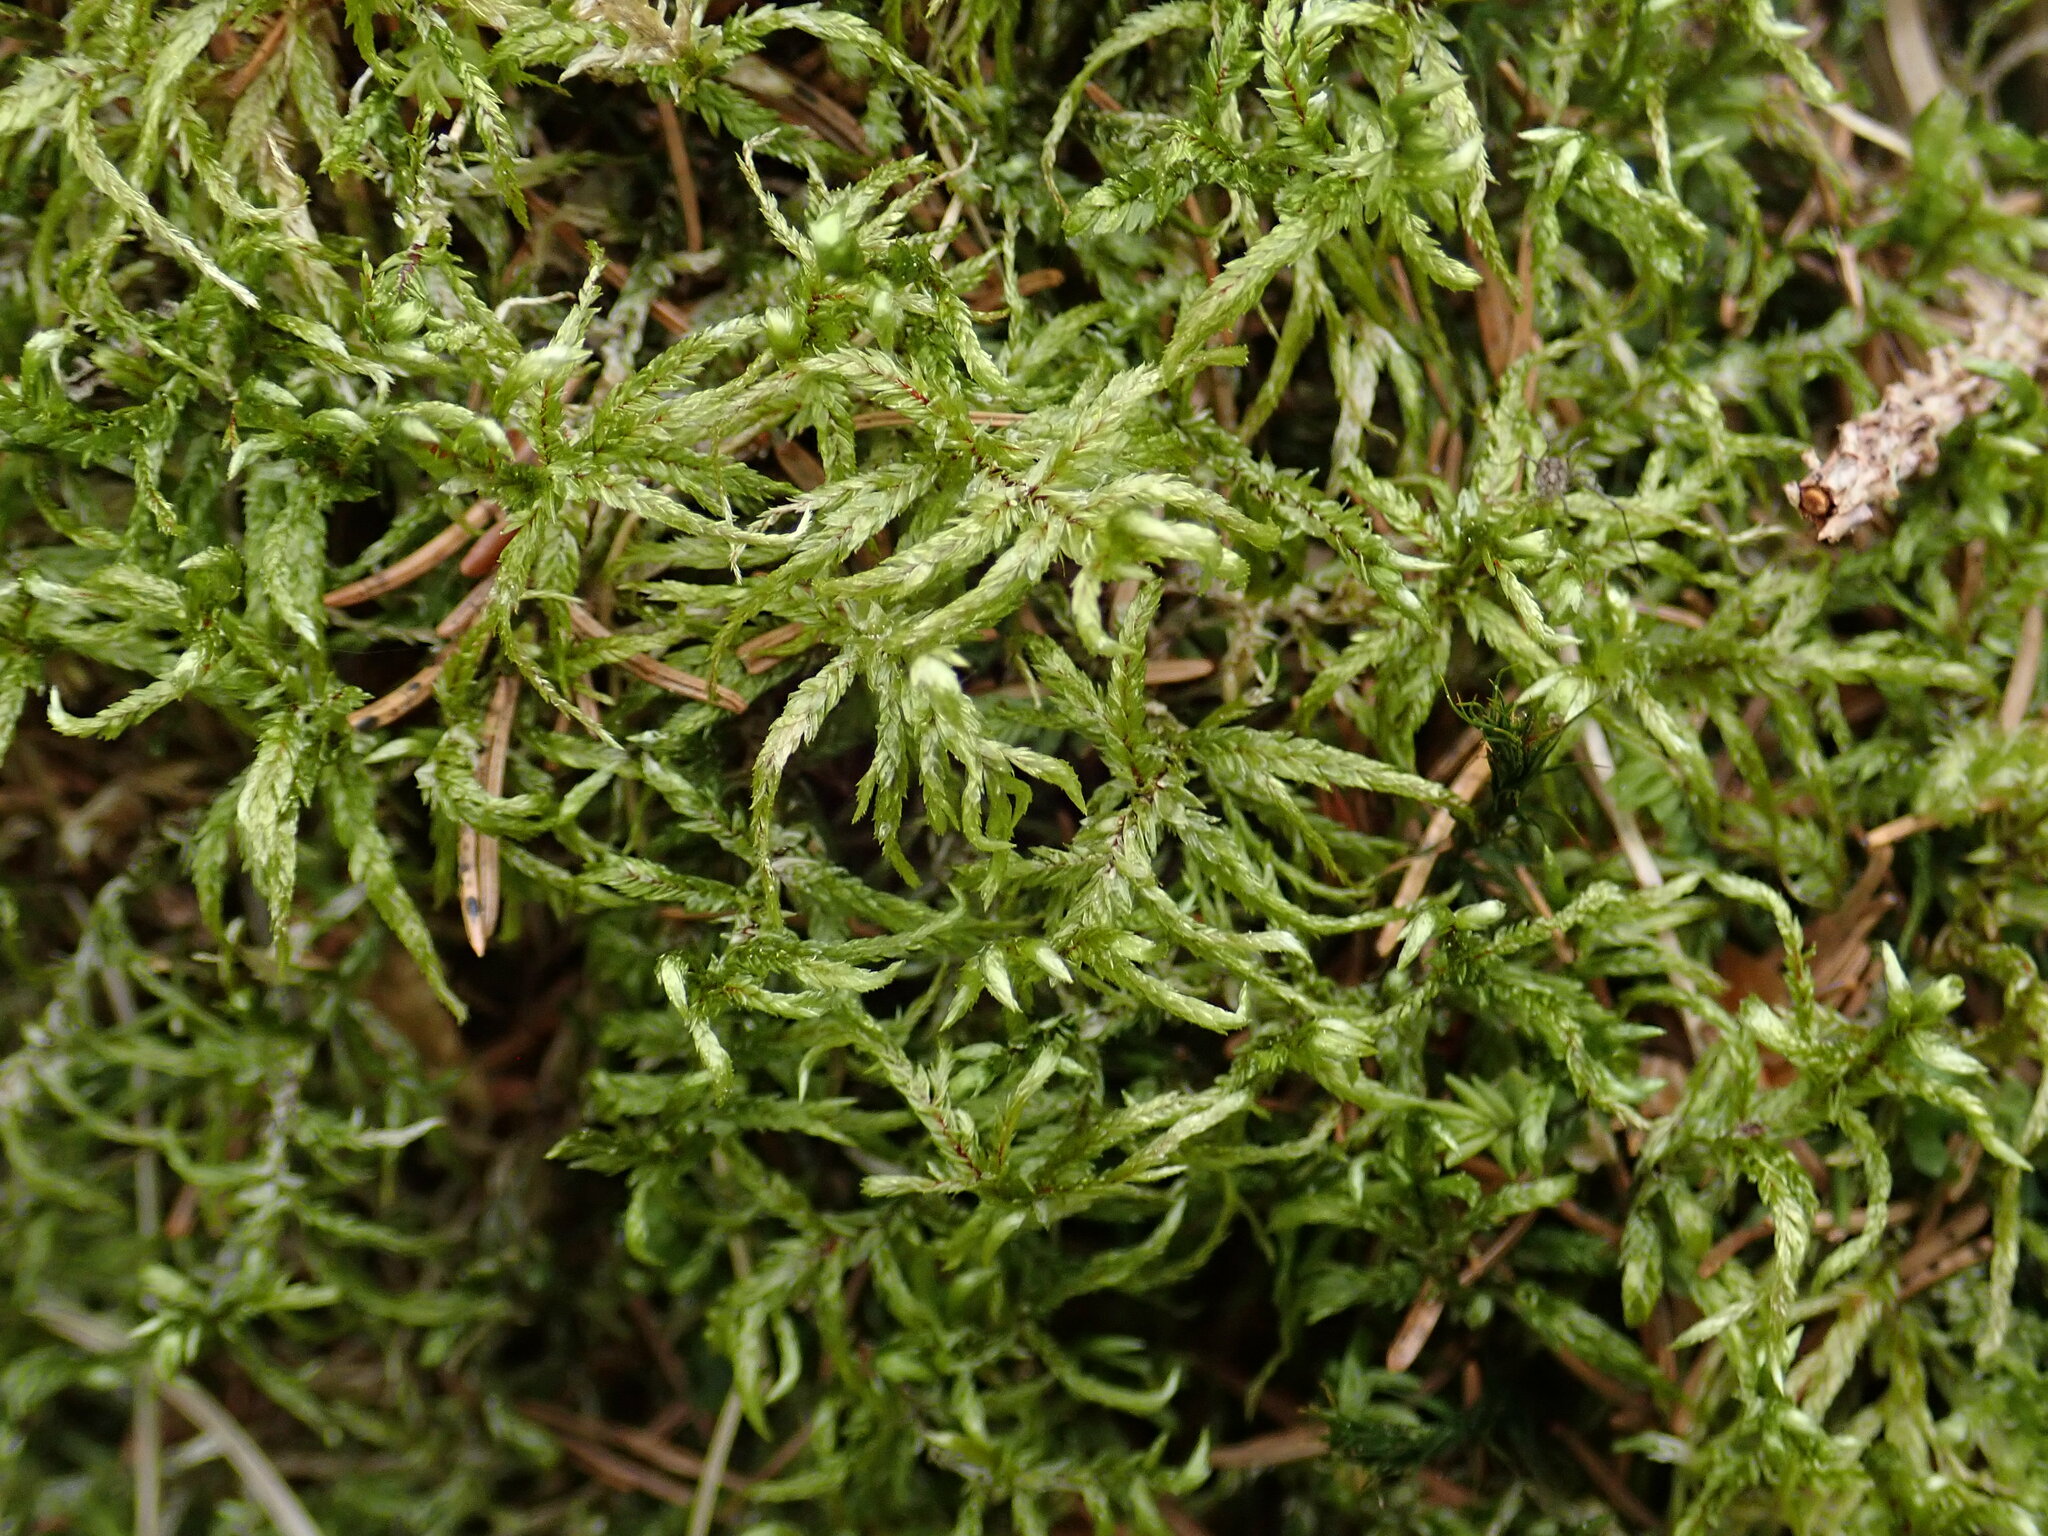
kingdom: Plantae
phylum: Bryophyta
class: Bryopsida
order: Hypnales
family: Hylocomiaceae
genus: Pleurozium
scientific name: Pleurozium schreberi
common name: Red-stemmed feather moss
